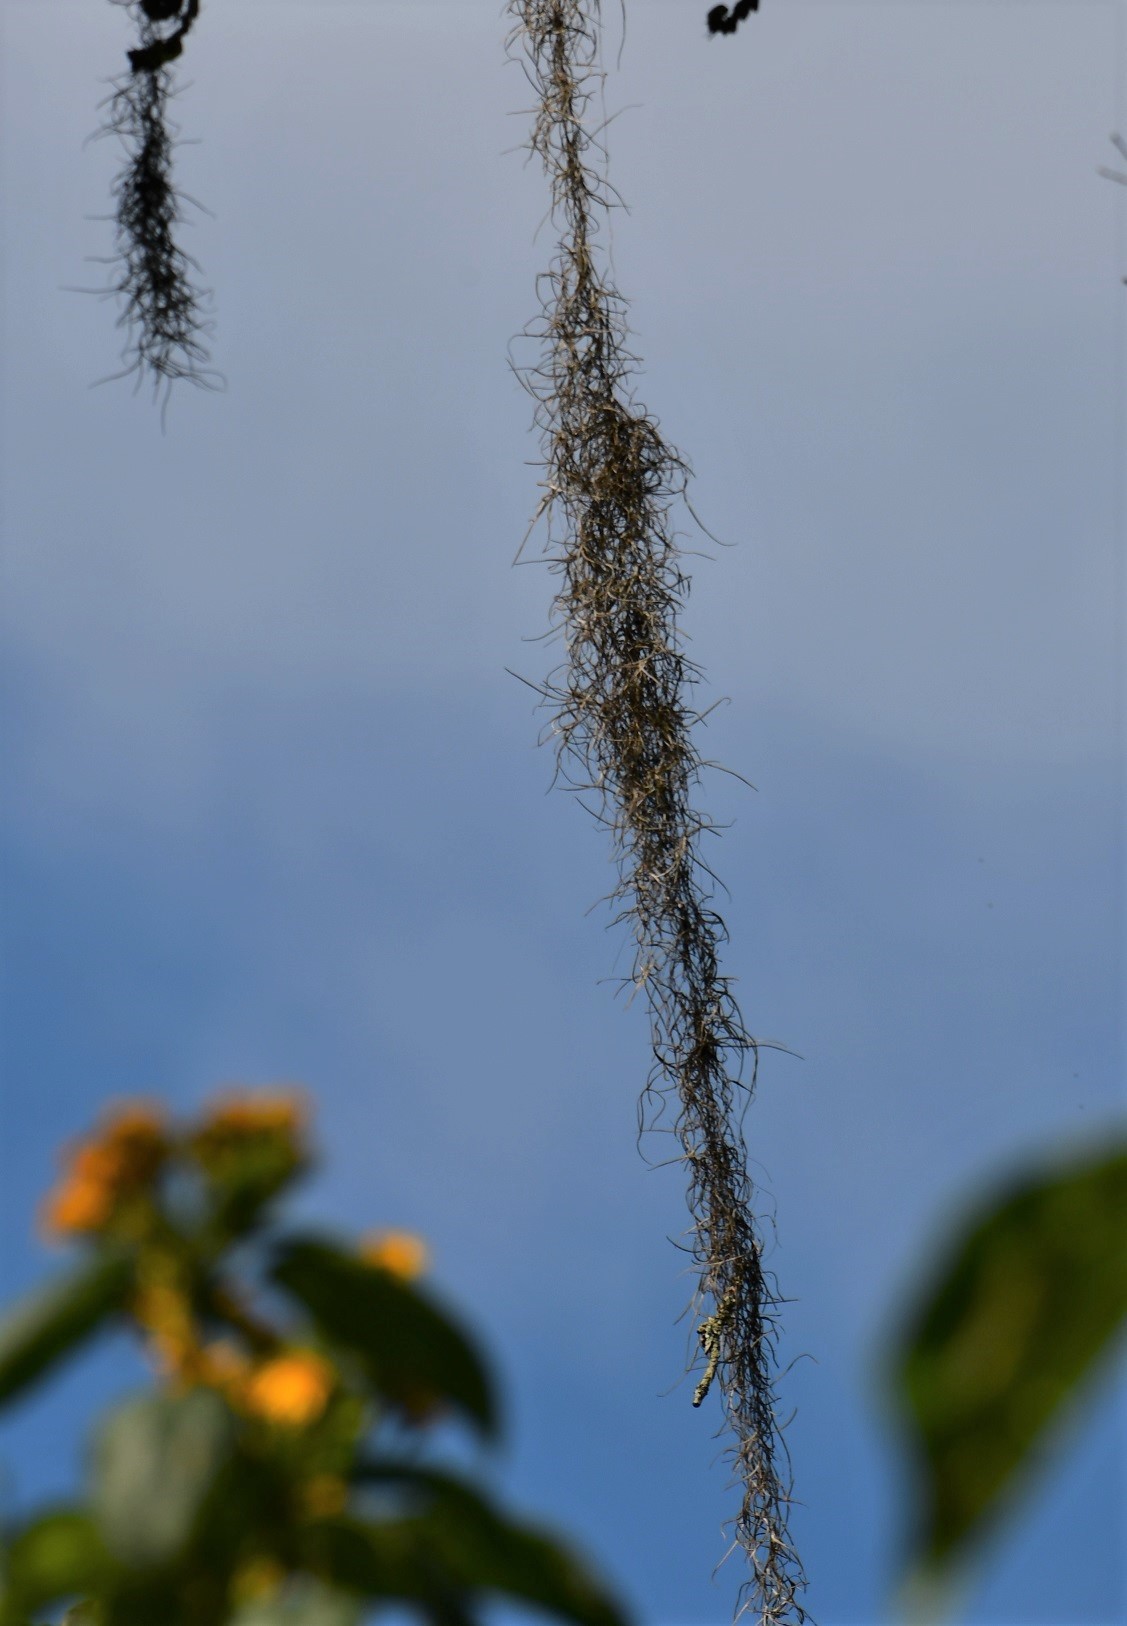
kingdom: Plantae
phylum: Tracheophyta
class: Liliopsida
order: Poales
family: Bromeliaceae
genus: Tillandsia
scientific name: Tillandsia usneoides
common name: Spanish moss
